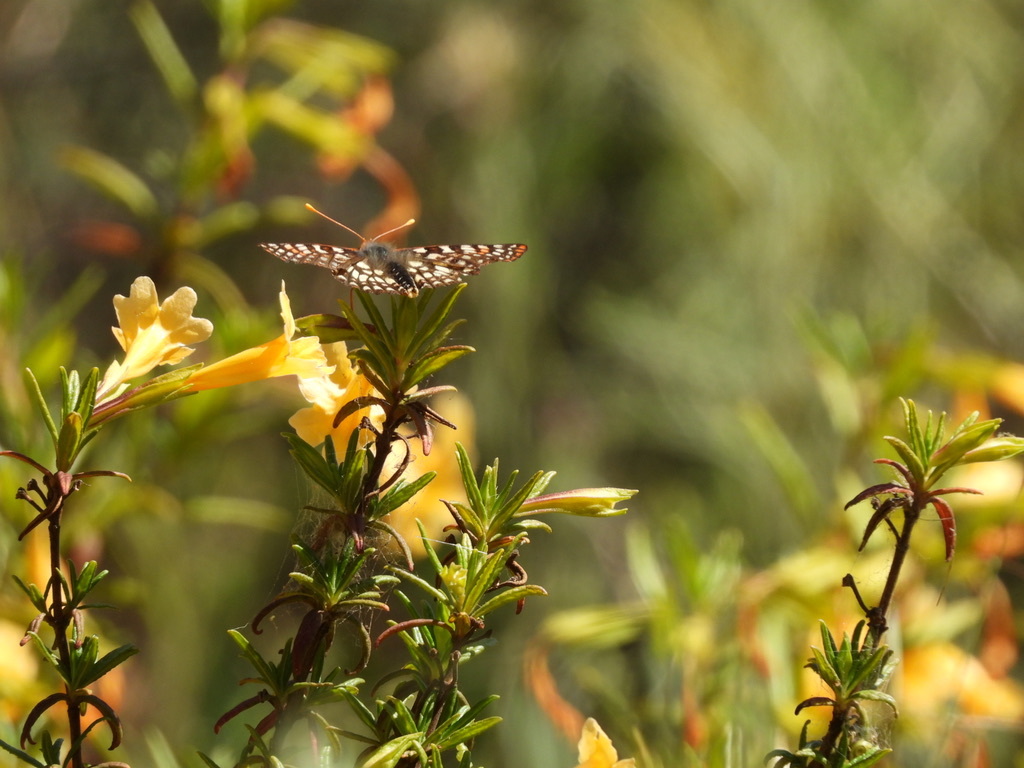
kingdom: Animalia
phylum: Arthropoda
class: Insecta
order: Lepidoptera
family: Nymphalidae
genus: Occidryas
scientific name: Occidryas chalcedona
